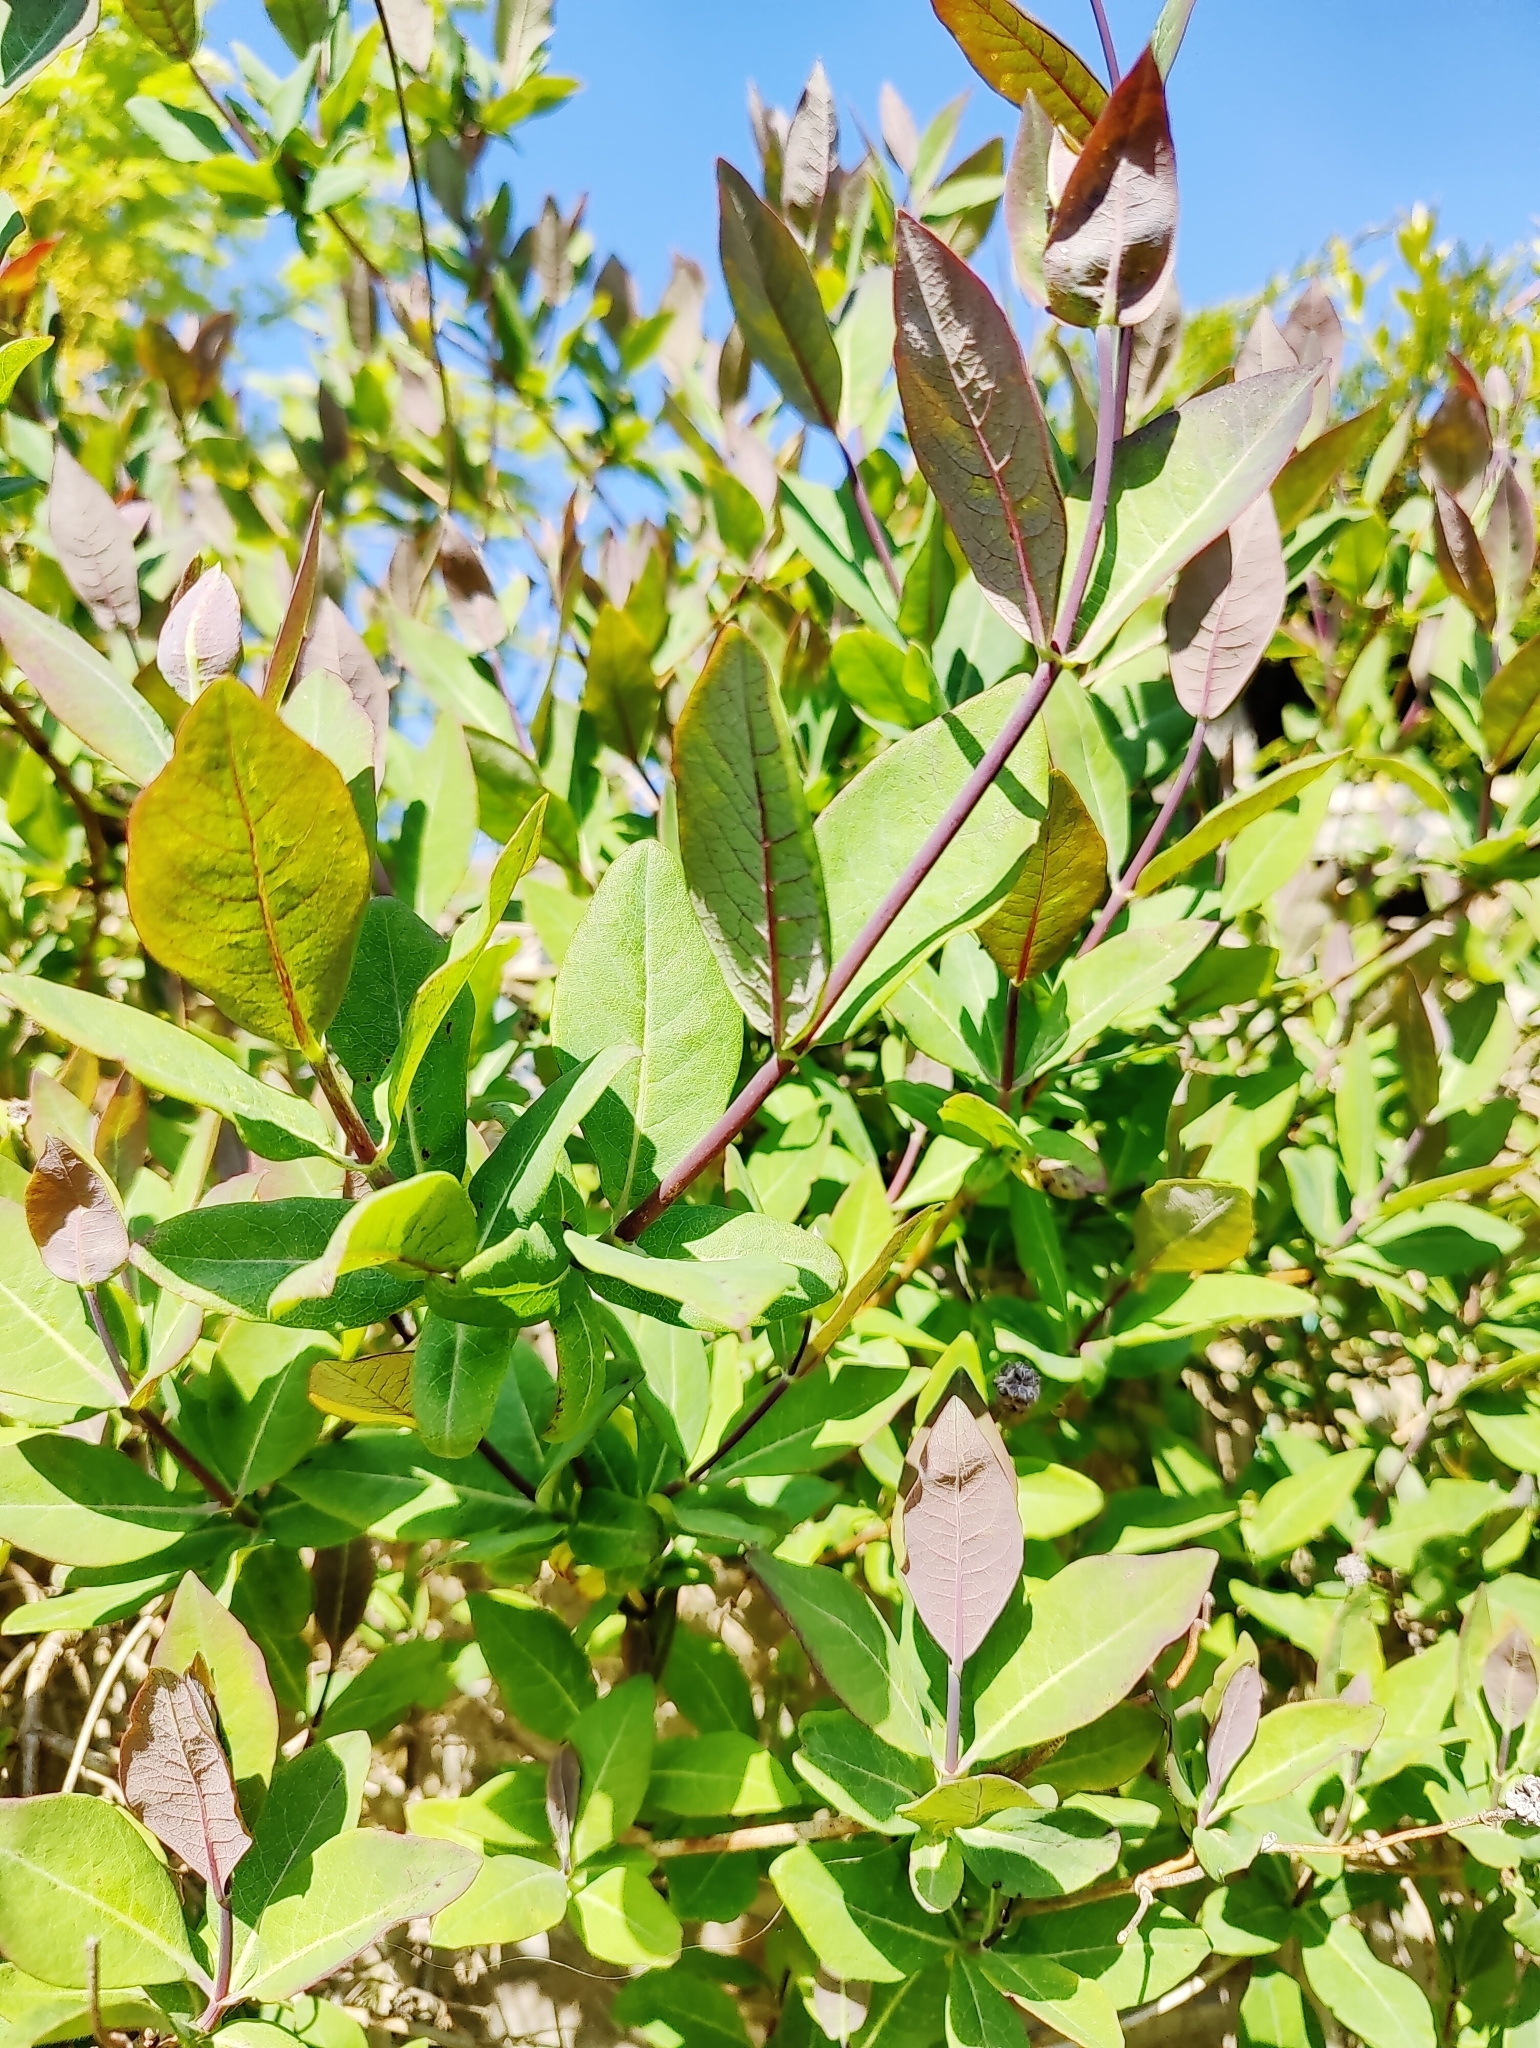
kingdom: Plantae
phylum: Tracheophyta
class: Magnoliopsida
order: Dipsacales
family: Caprifoliaceae
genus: Lonicera
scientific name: Lonicera periclymenum
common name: European honeysuckle
